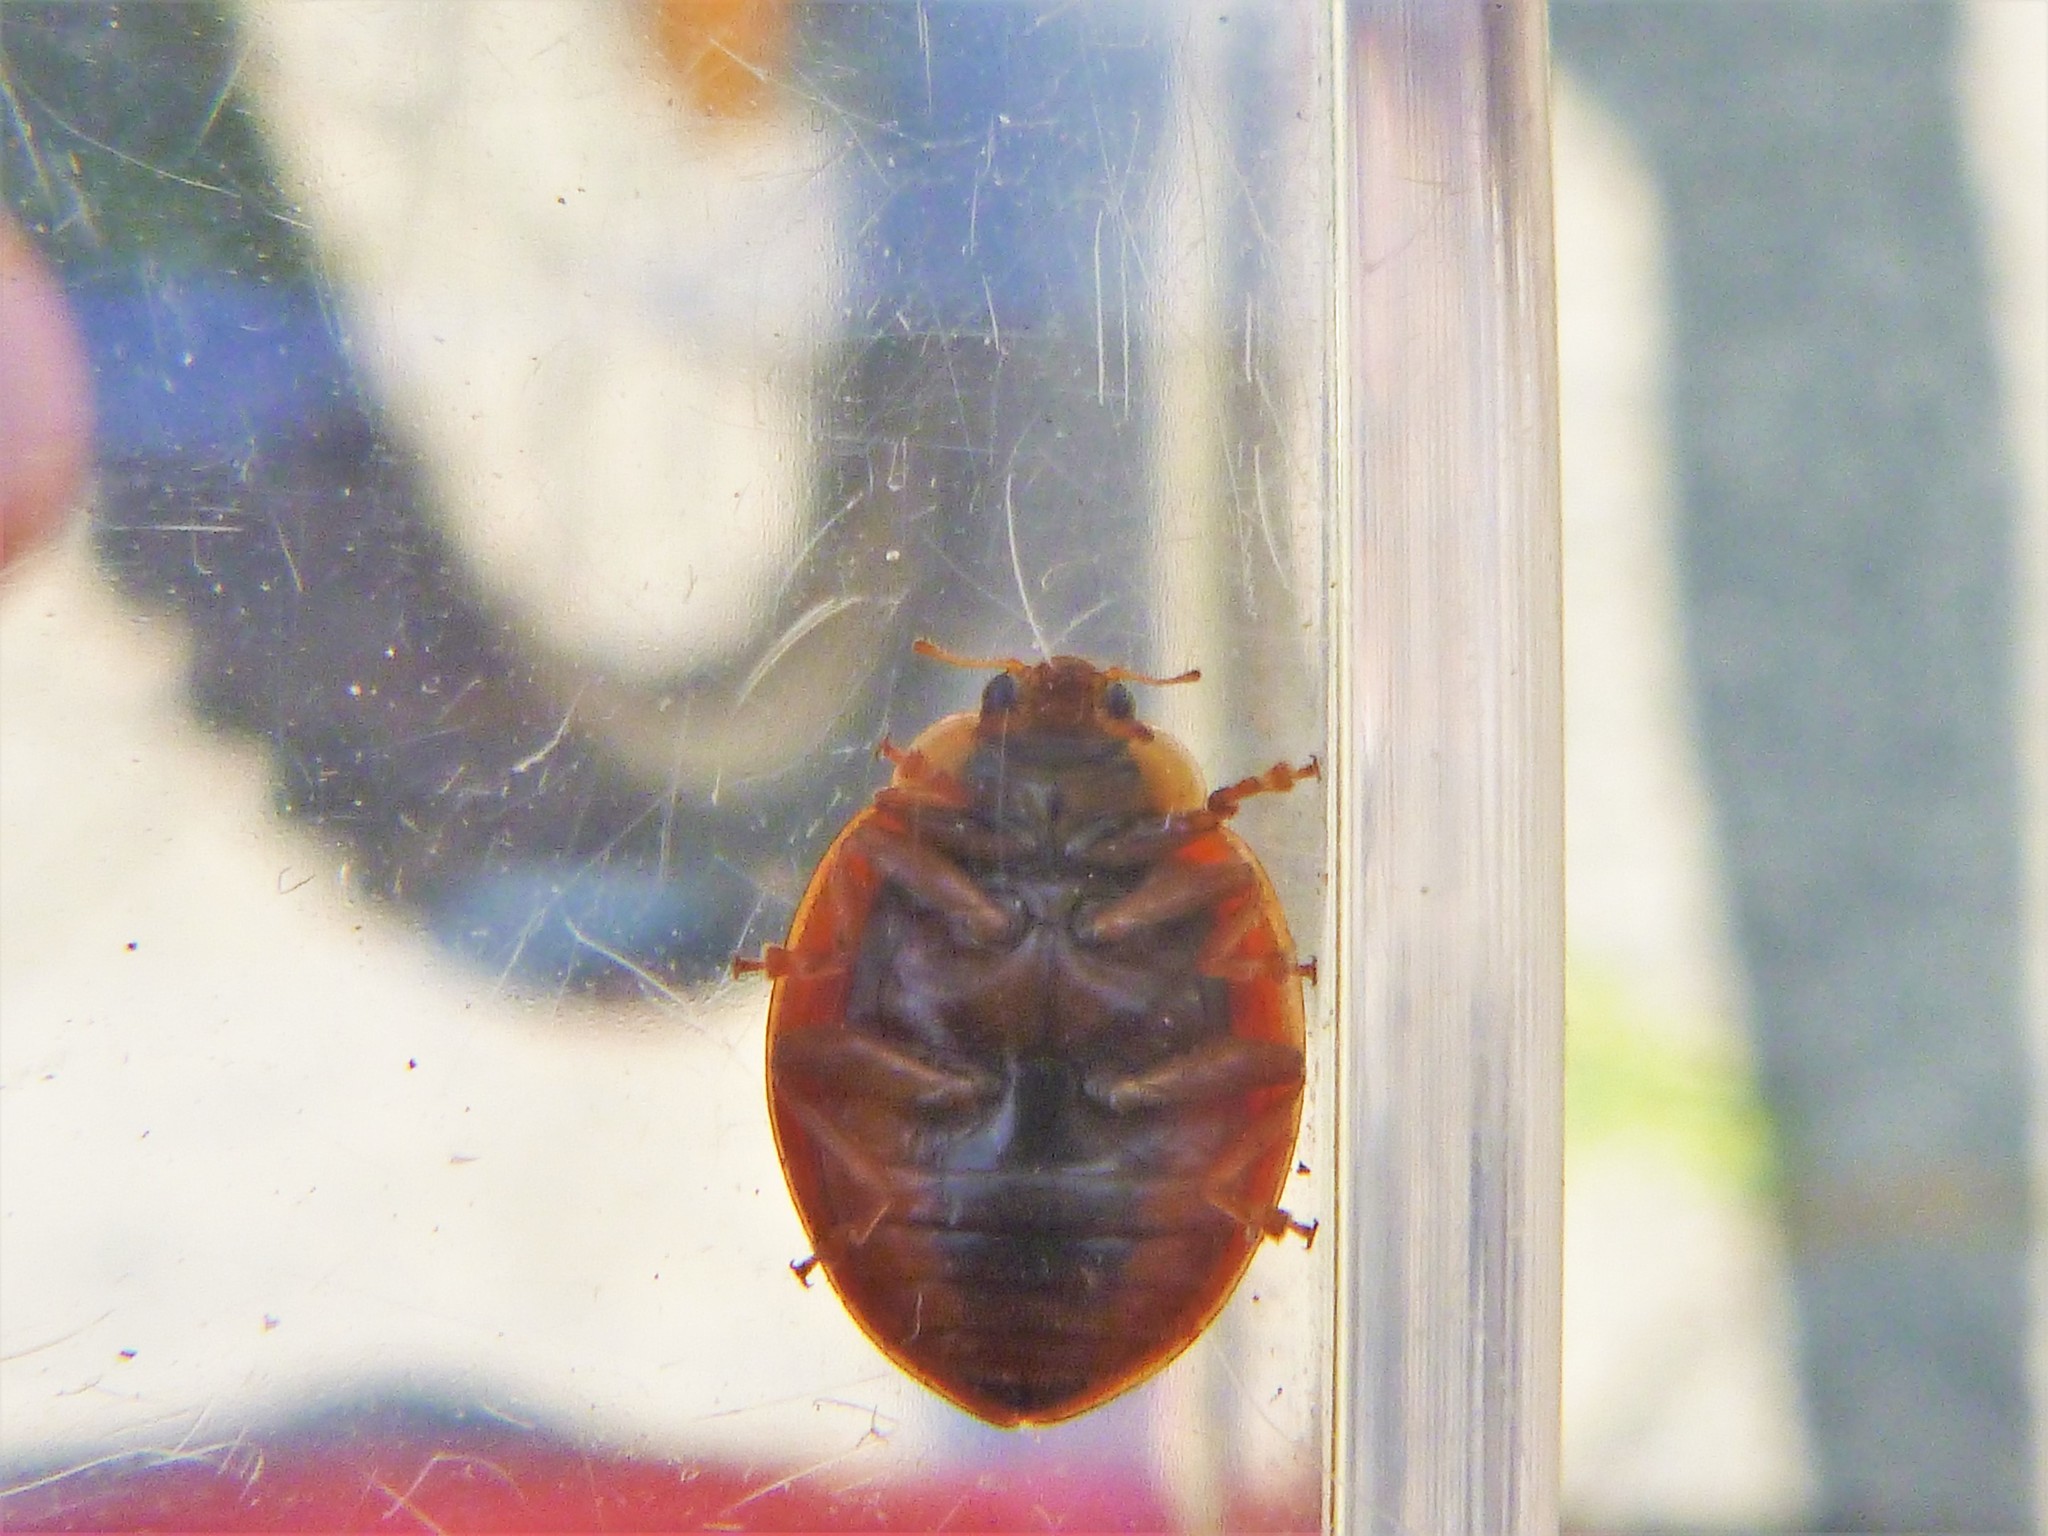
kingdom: Animalia
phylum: Arthropoda
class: Insecta
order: Coleoptera
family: Coccinellidae
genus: Harmonia
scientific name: Harmonia axyridis
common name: Harlequin ladybird
